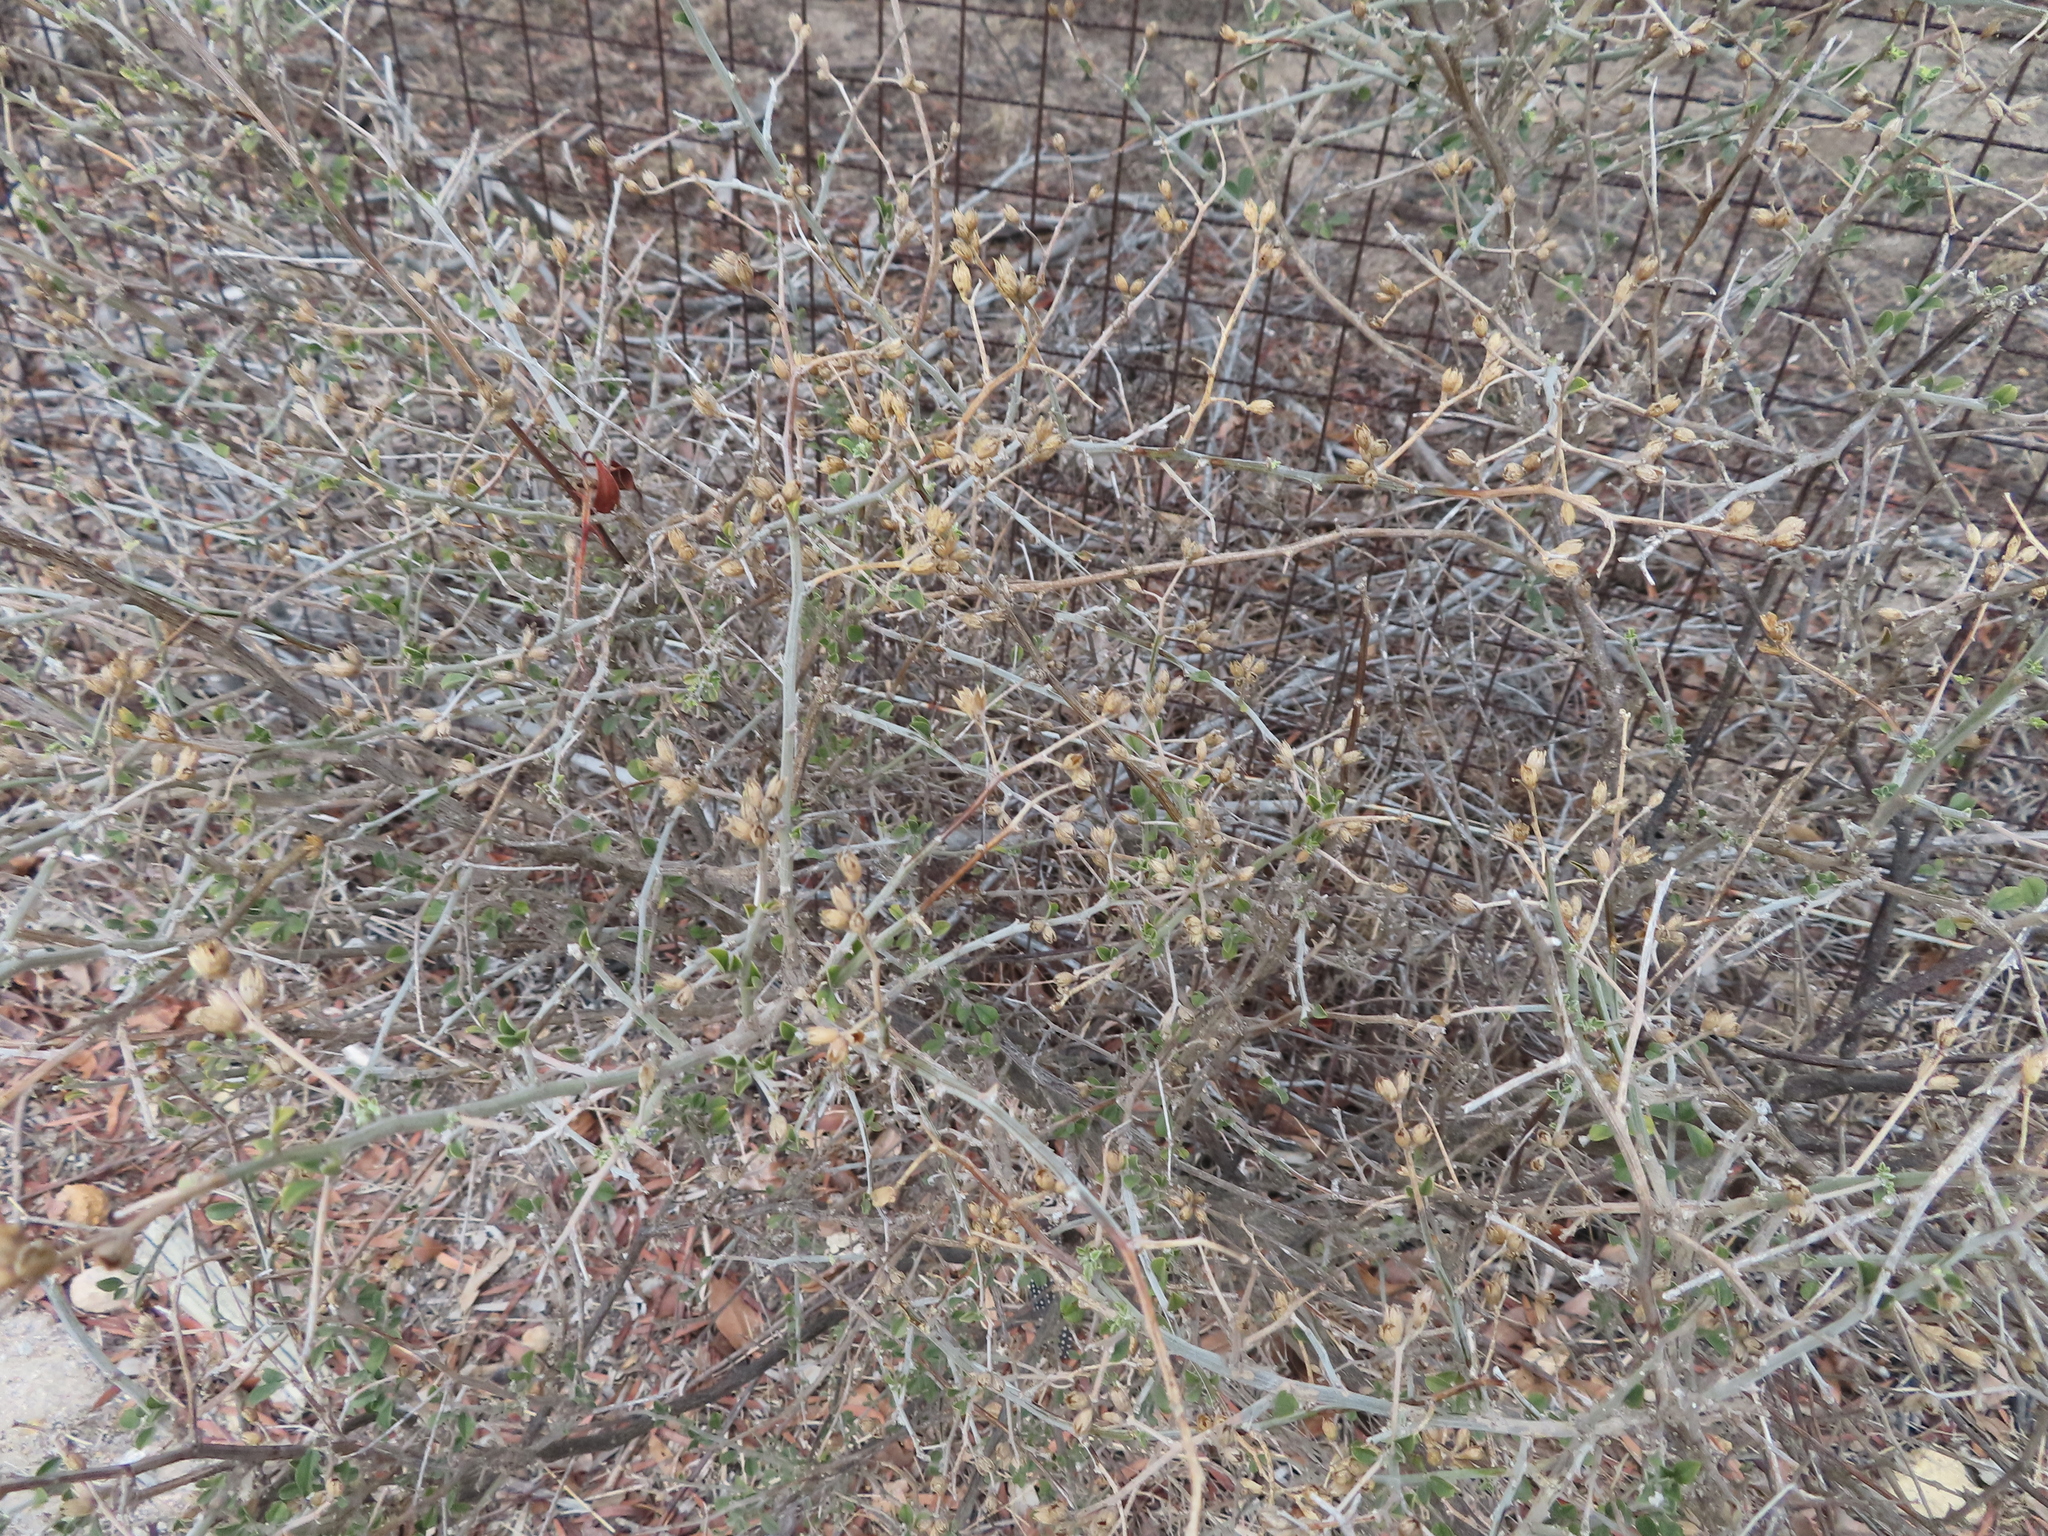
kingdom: Plantae
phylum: Tracheophyta
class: Magnoliopsida
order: Fabales
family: Fabaceae
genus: Psoralea
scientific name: Psoralea hirta
